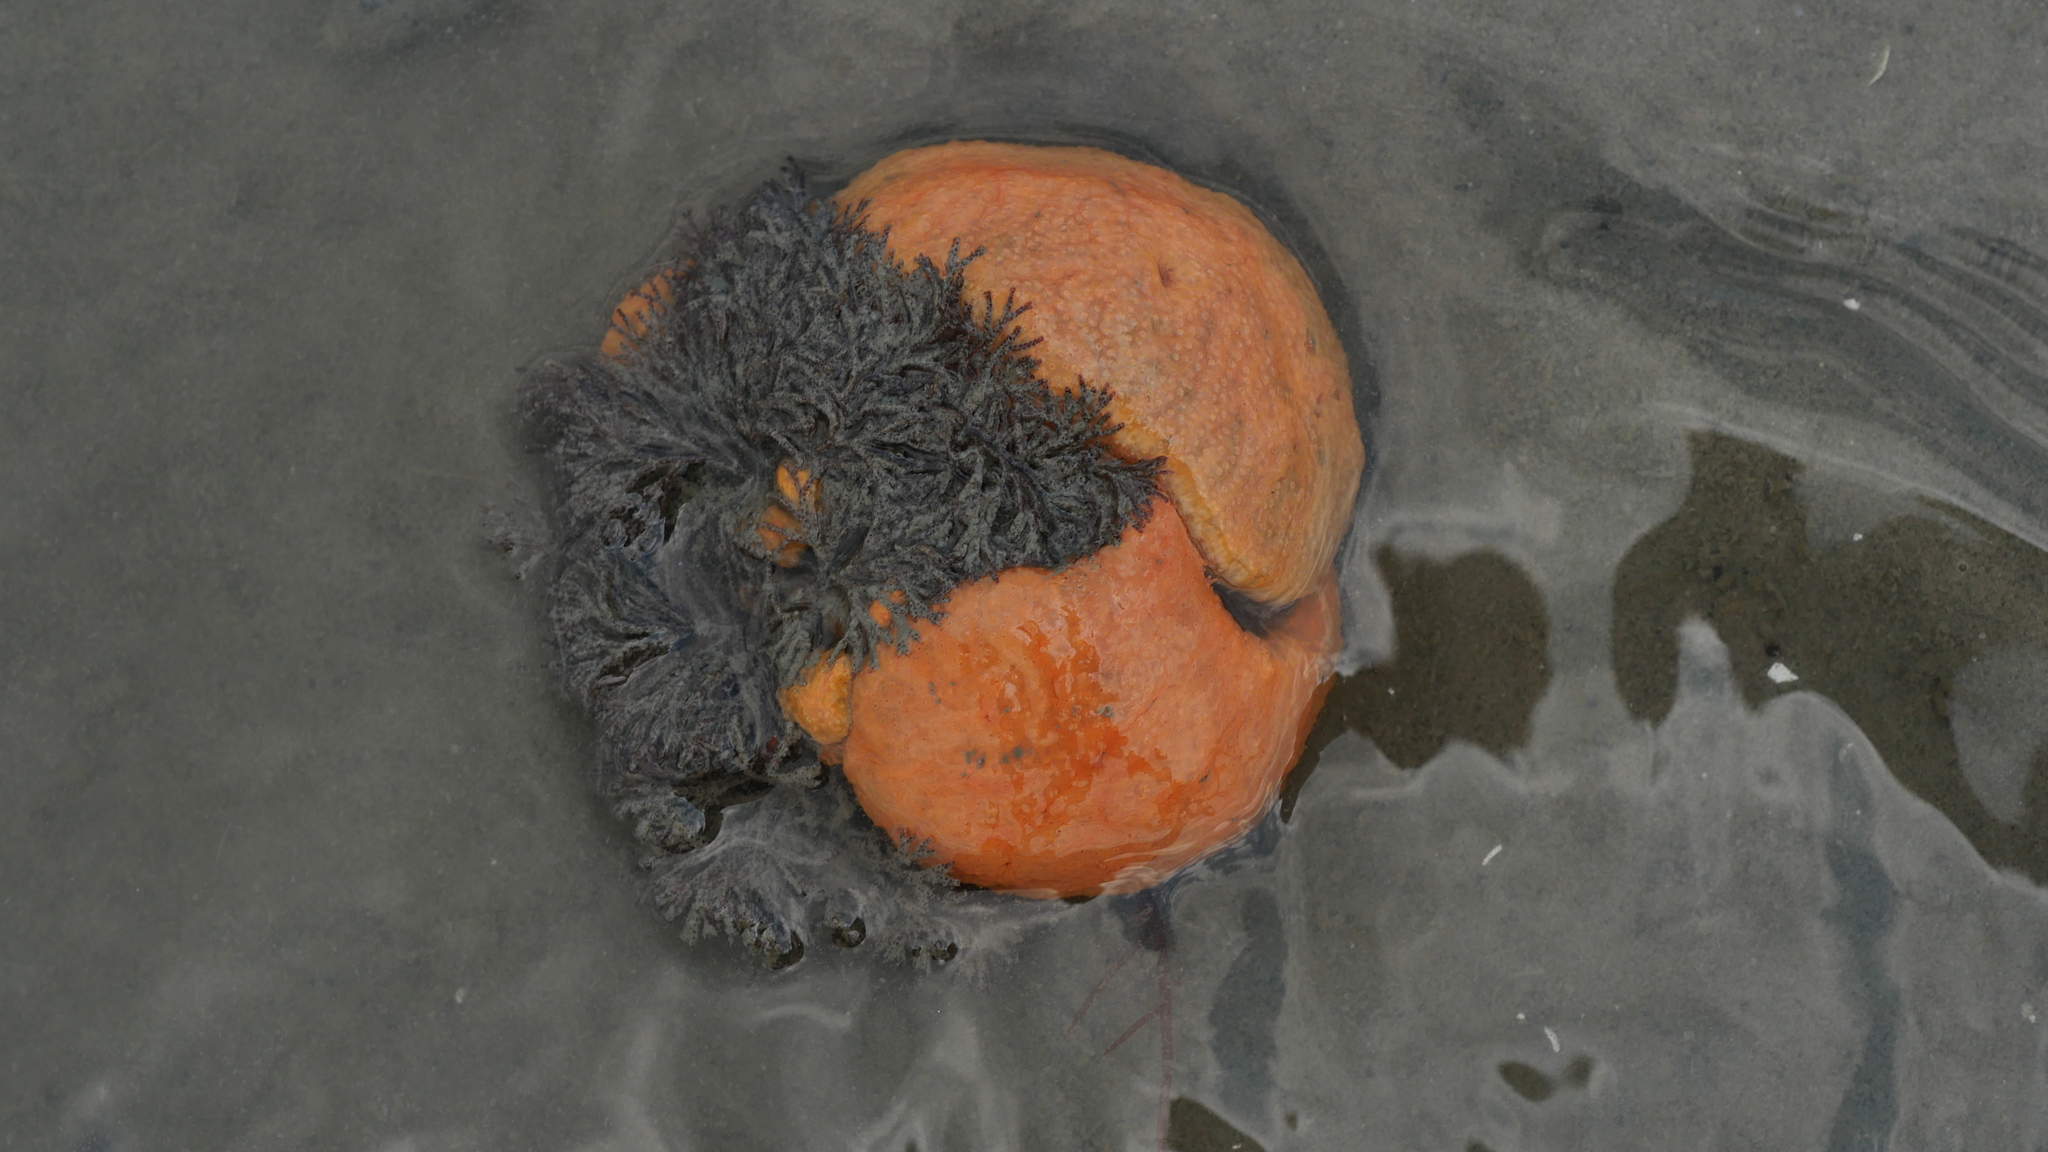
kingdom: Animalia
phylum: Chordata
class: Ascidiacea
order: Aplousobranchia
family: Polyclinidae
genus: Aplidium
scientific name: Aplidium stellatum
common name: Atlantic sea pork
